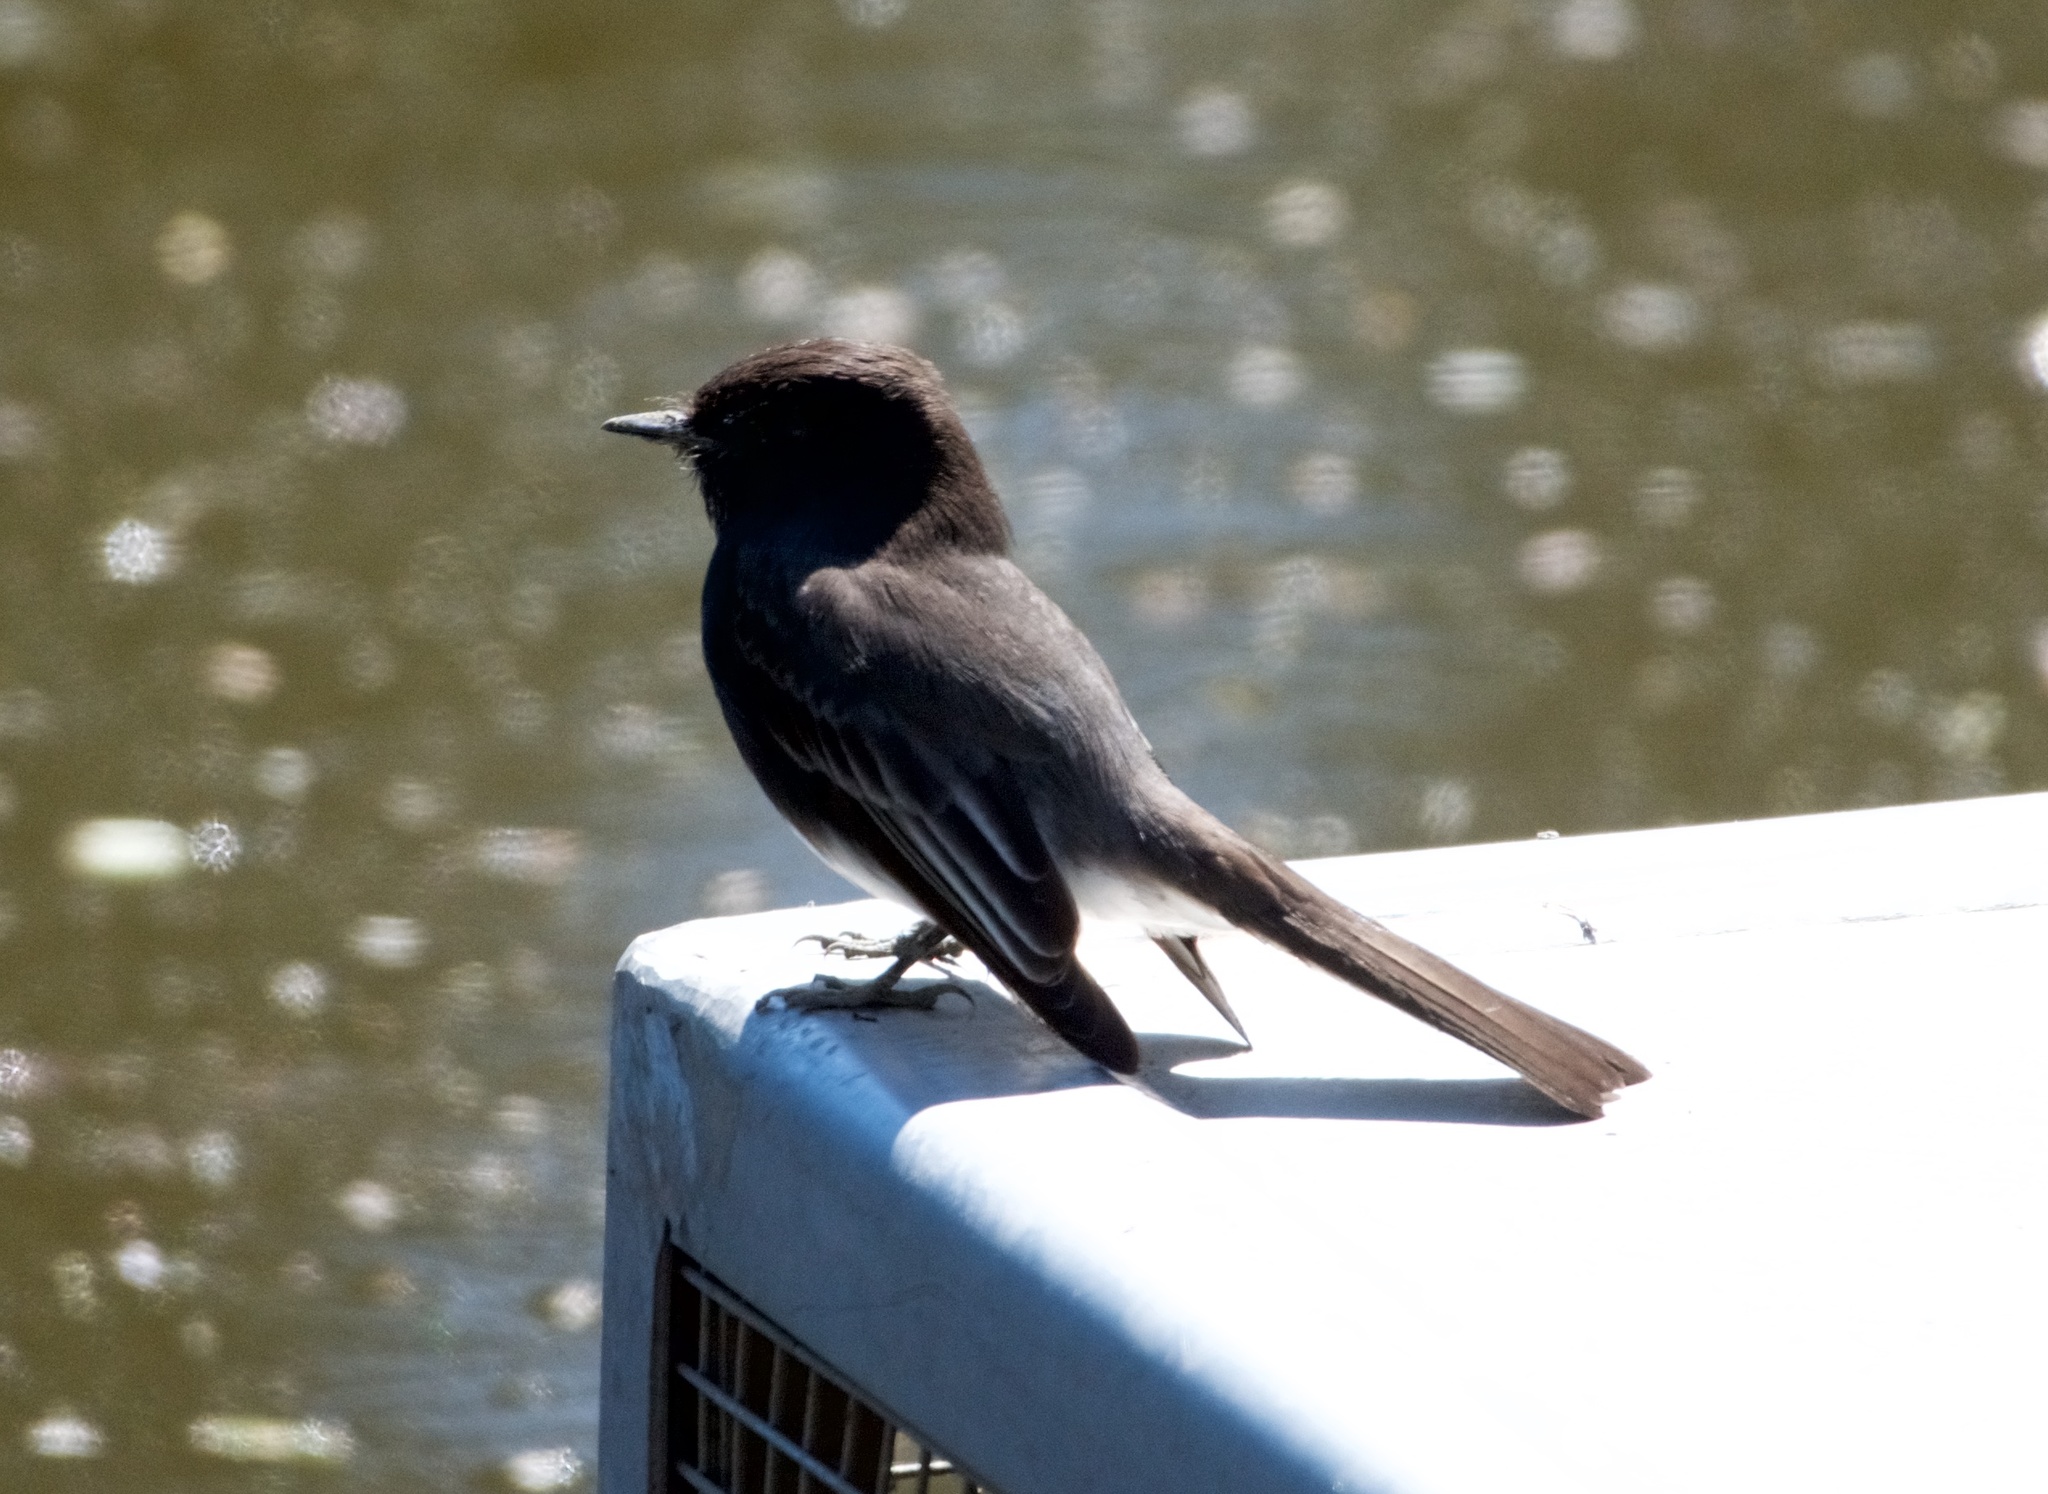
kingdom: Animalia
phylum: Chordata
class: Aves
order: Passeriformes
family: Tyrannidae
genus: Sayornis
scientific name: Sayornis nigricans
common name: Black phoebe
